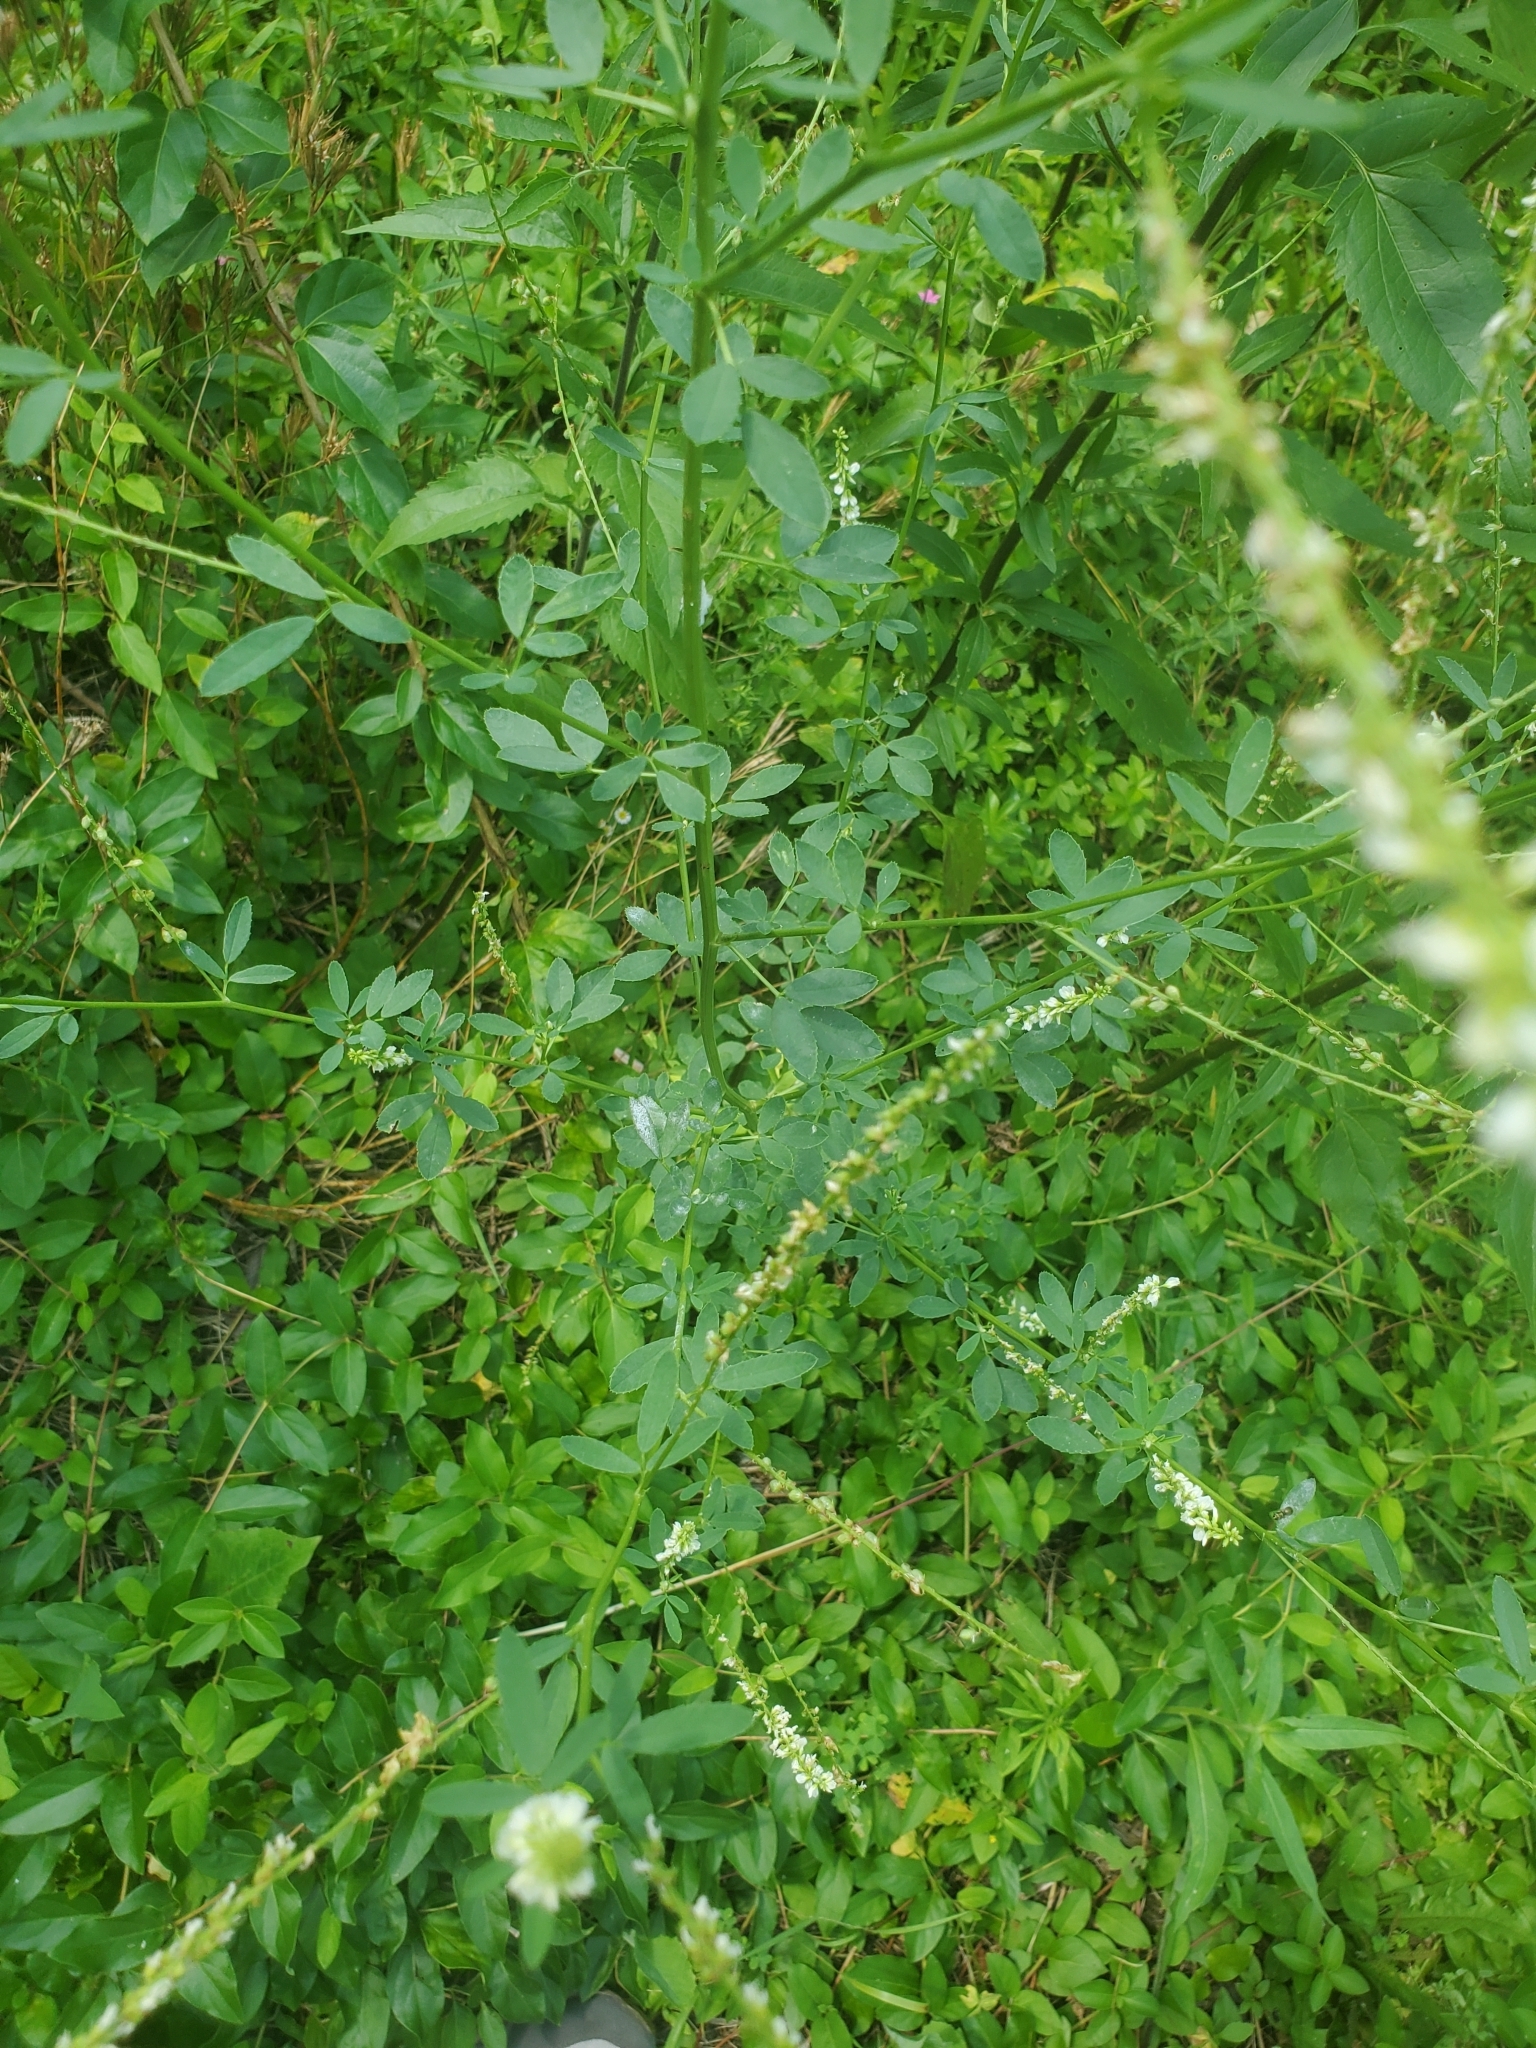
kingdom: Plantae
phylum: Tracheophyta
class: Magnoliopsida
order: Fabales
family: Fabaceae
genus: Melilotus
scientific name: Melilotus albus
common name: White melilot
